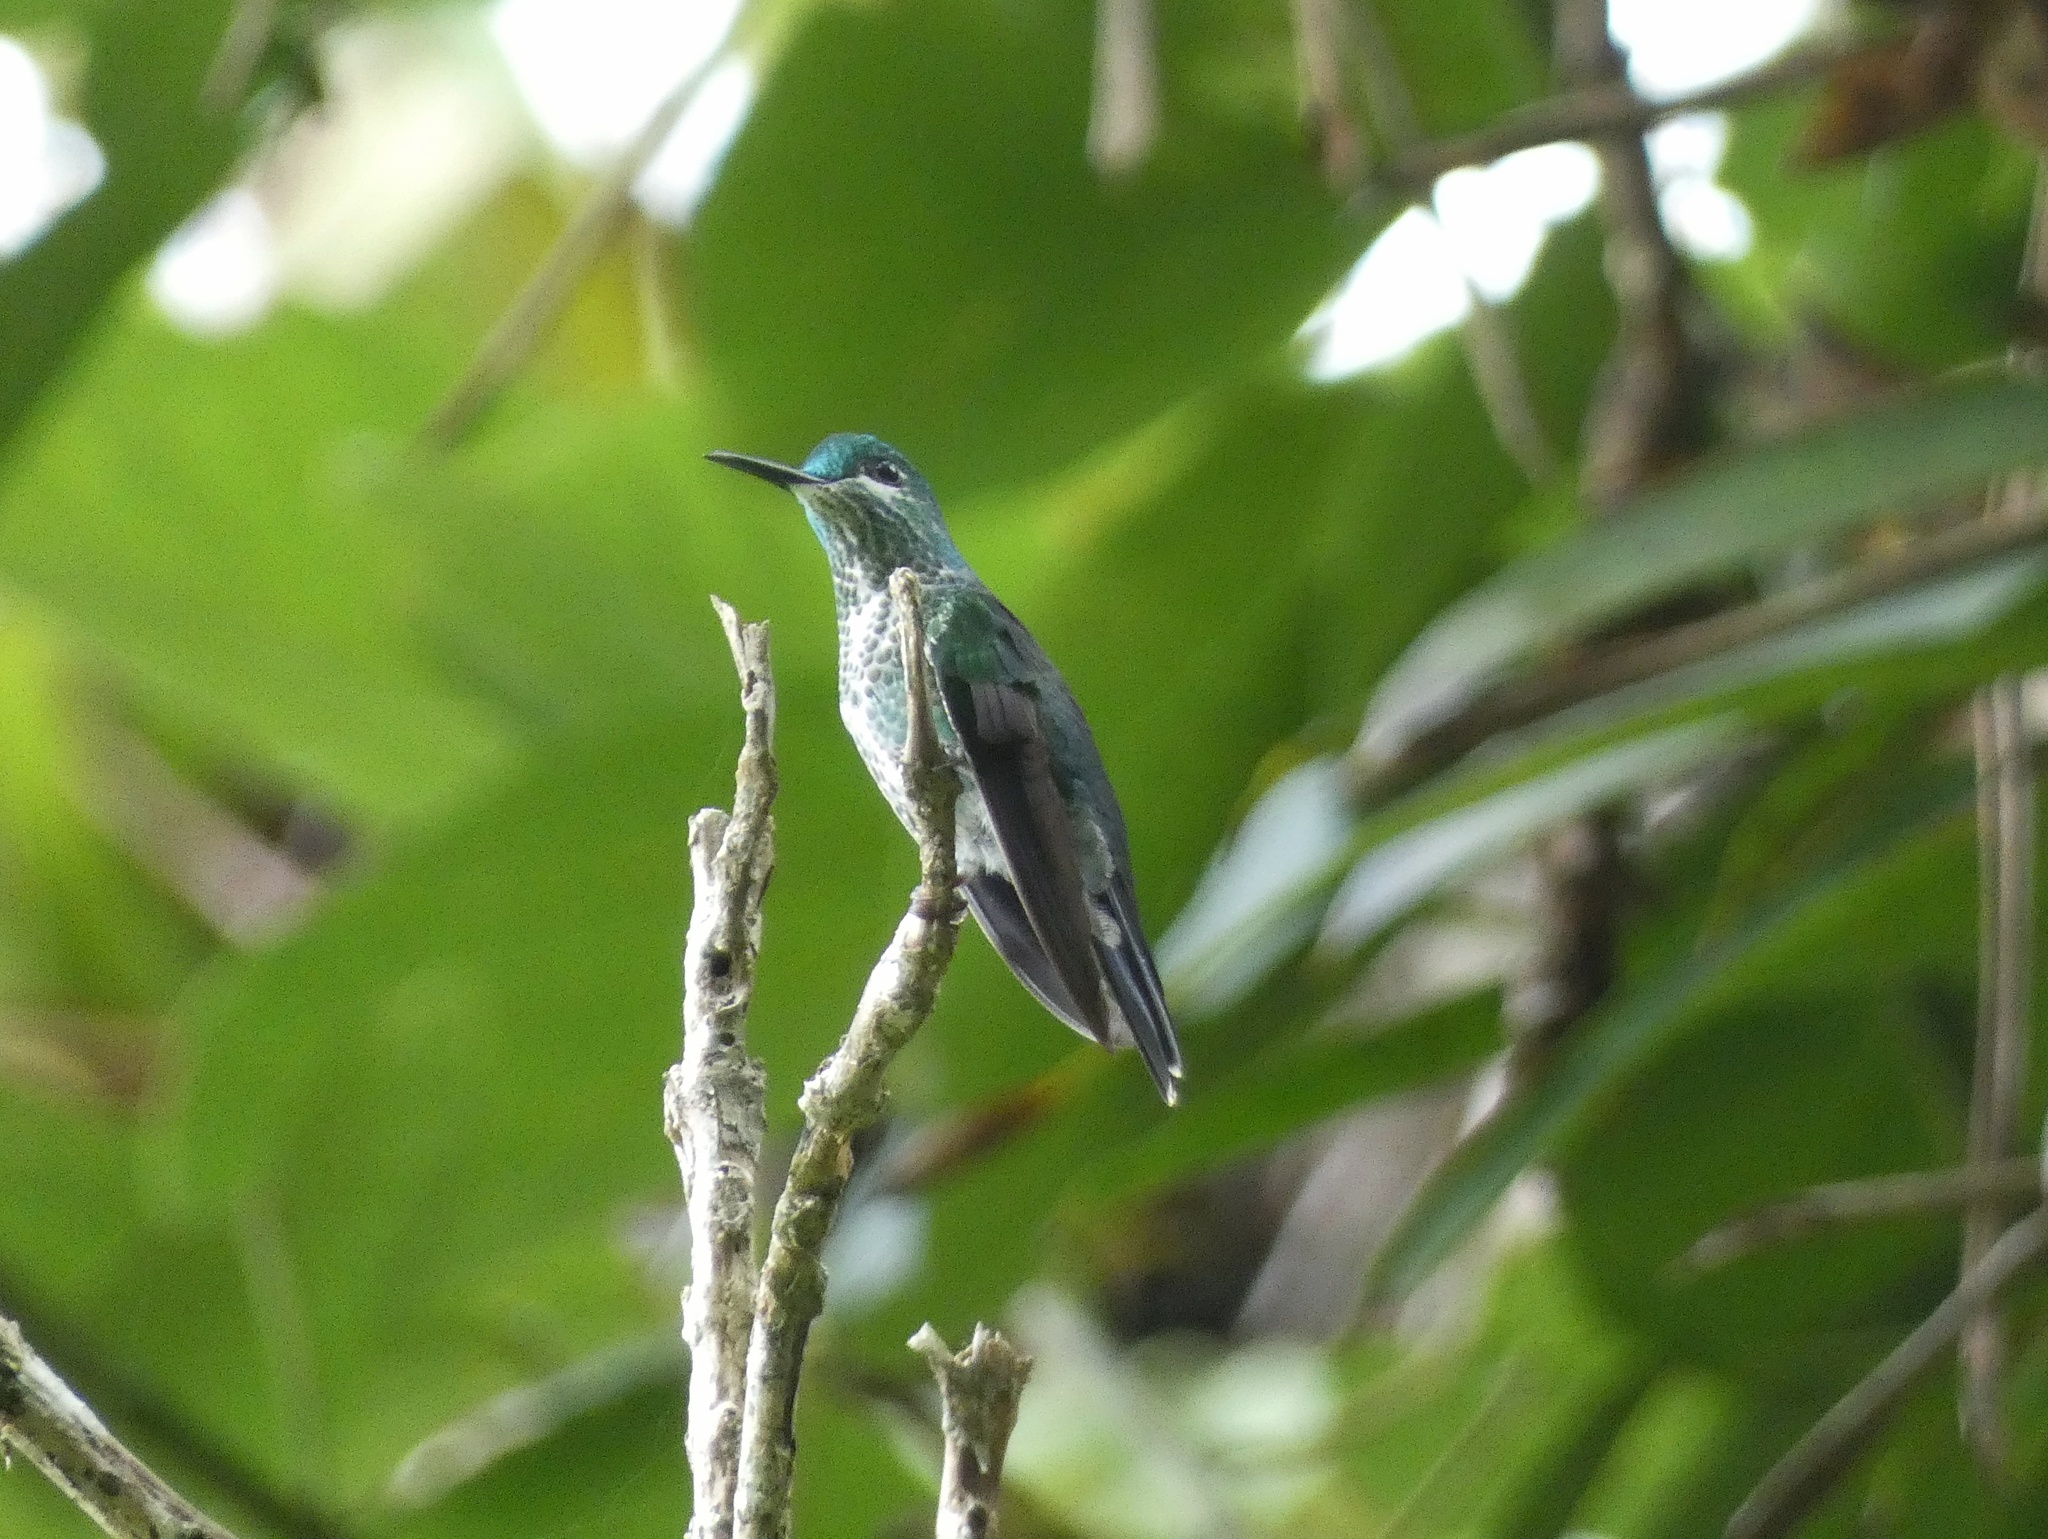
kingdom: Animalia
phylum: Chordata
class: Aves
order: Apodiformes
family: Trochilidae
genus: Heliodoxa
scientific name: Heliodoxa jacula
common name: Green-crowned brilliant
